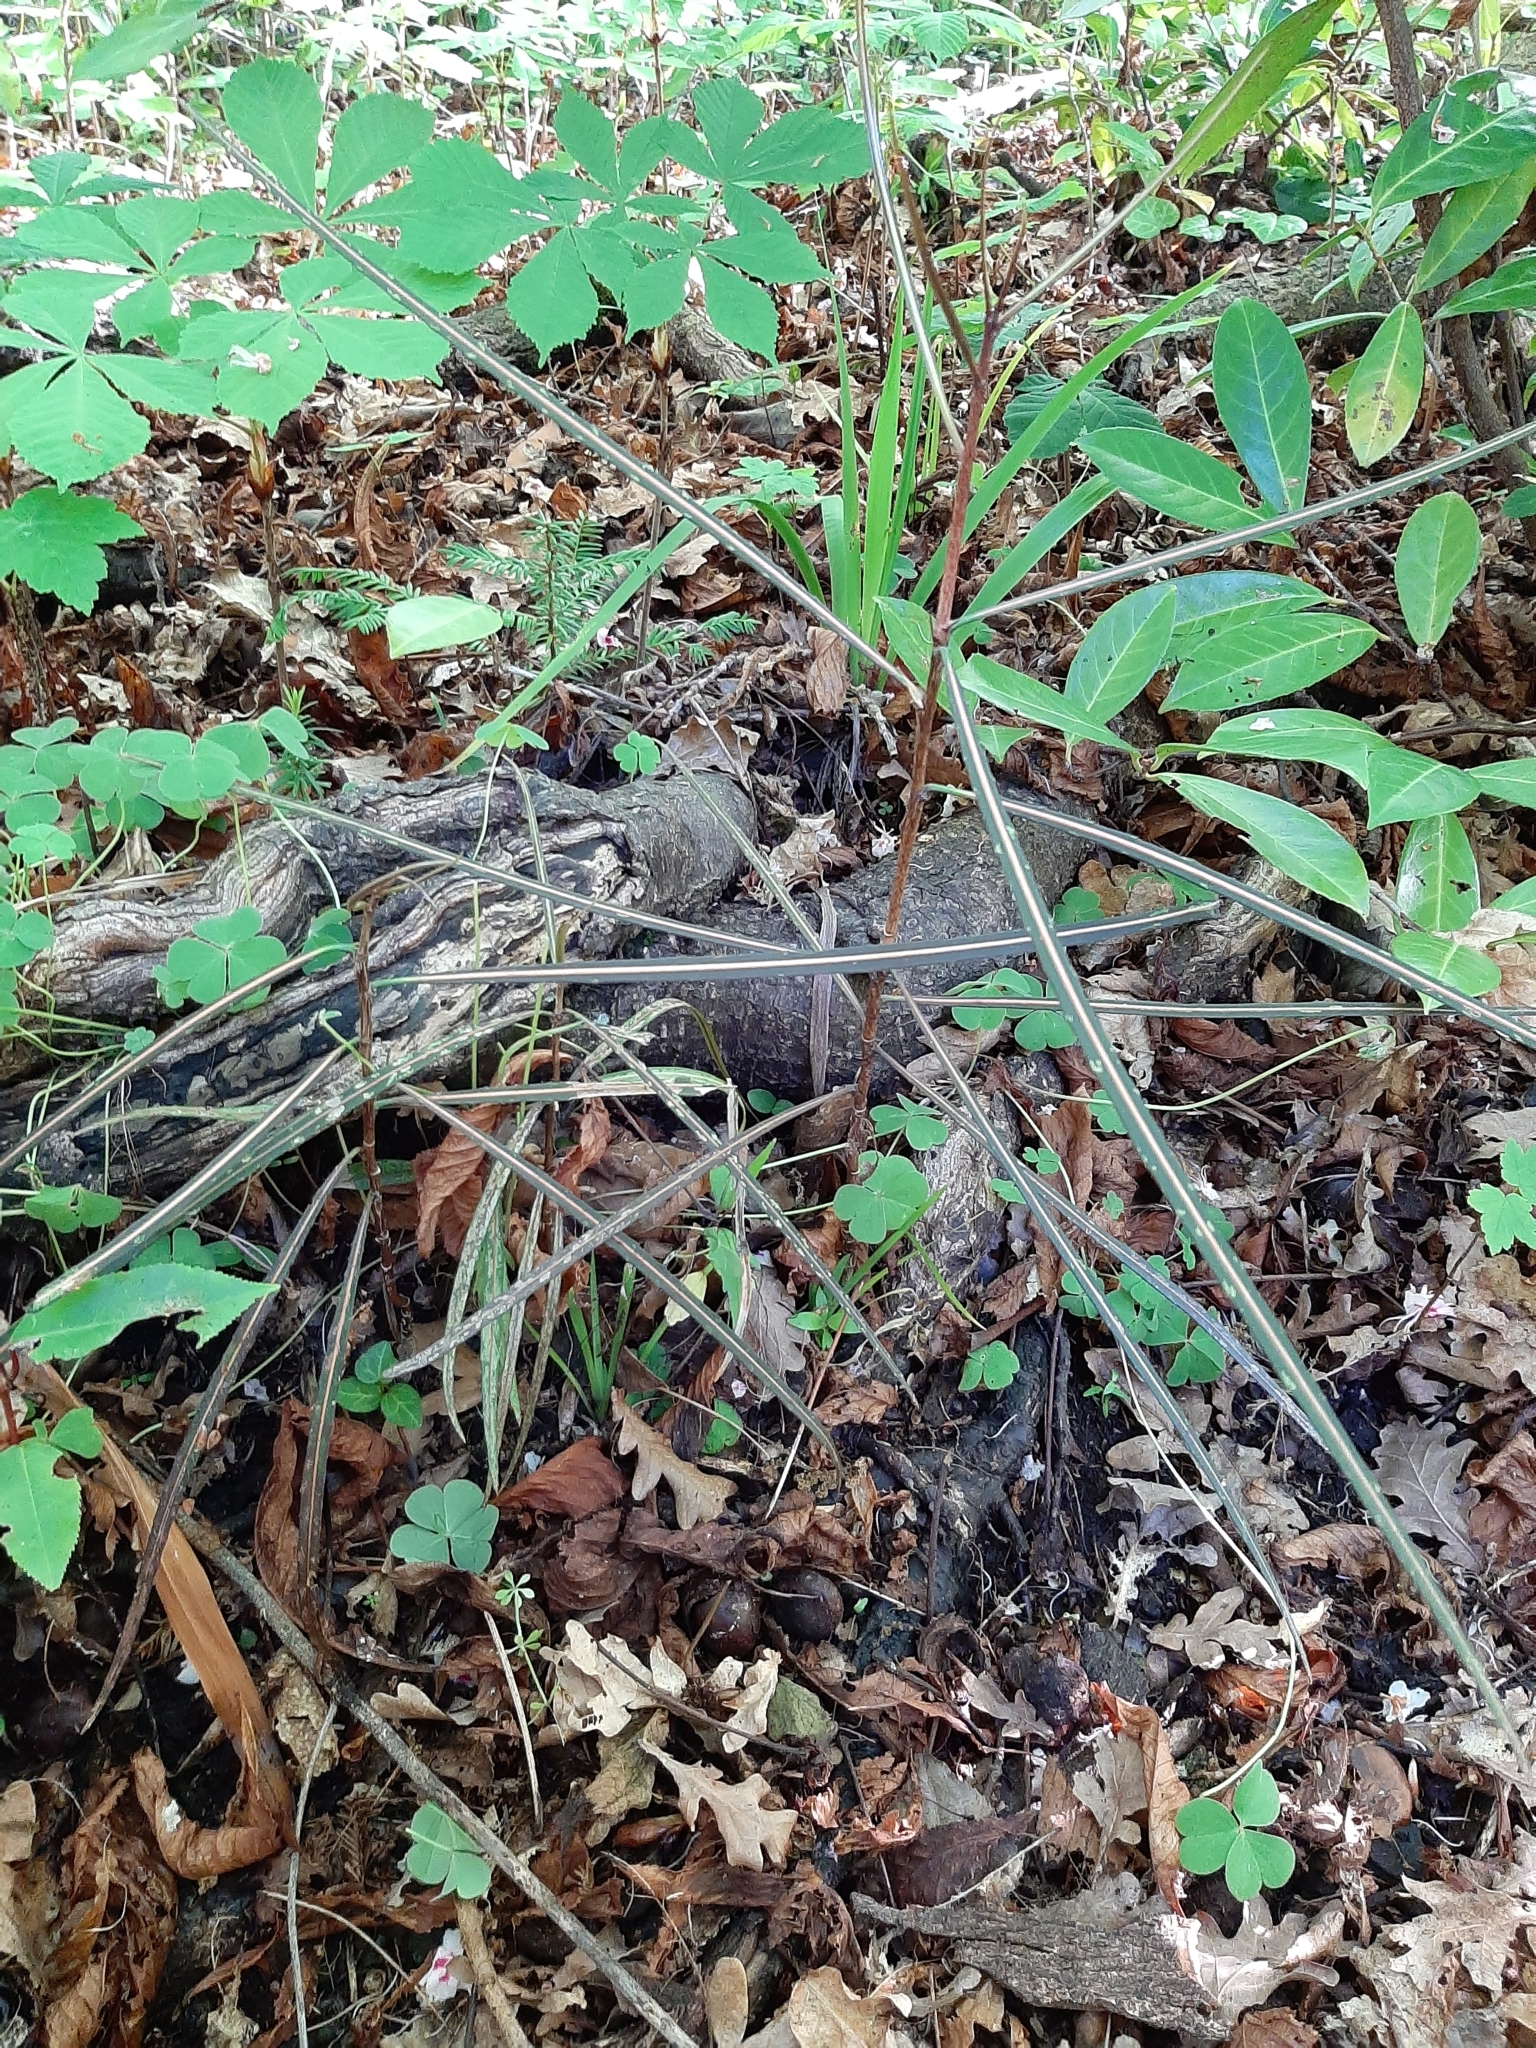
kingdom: Plantae
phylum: Tracheophyta
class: Magnoliopsida
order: Apiales
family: Araliaceae
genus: Pseudopanax
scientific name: Pseudopanax crassifolius
